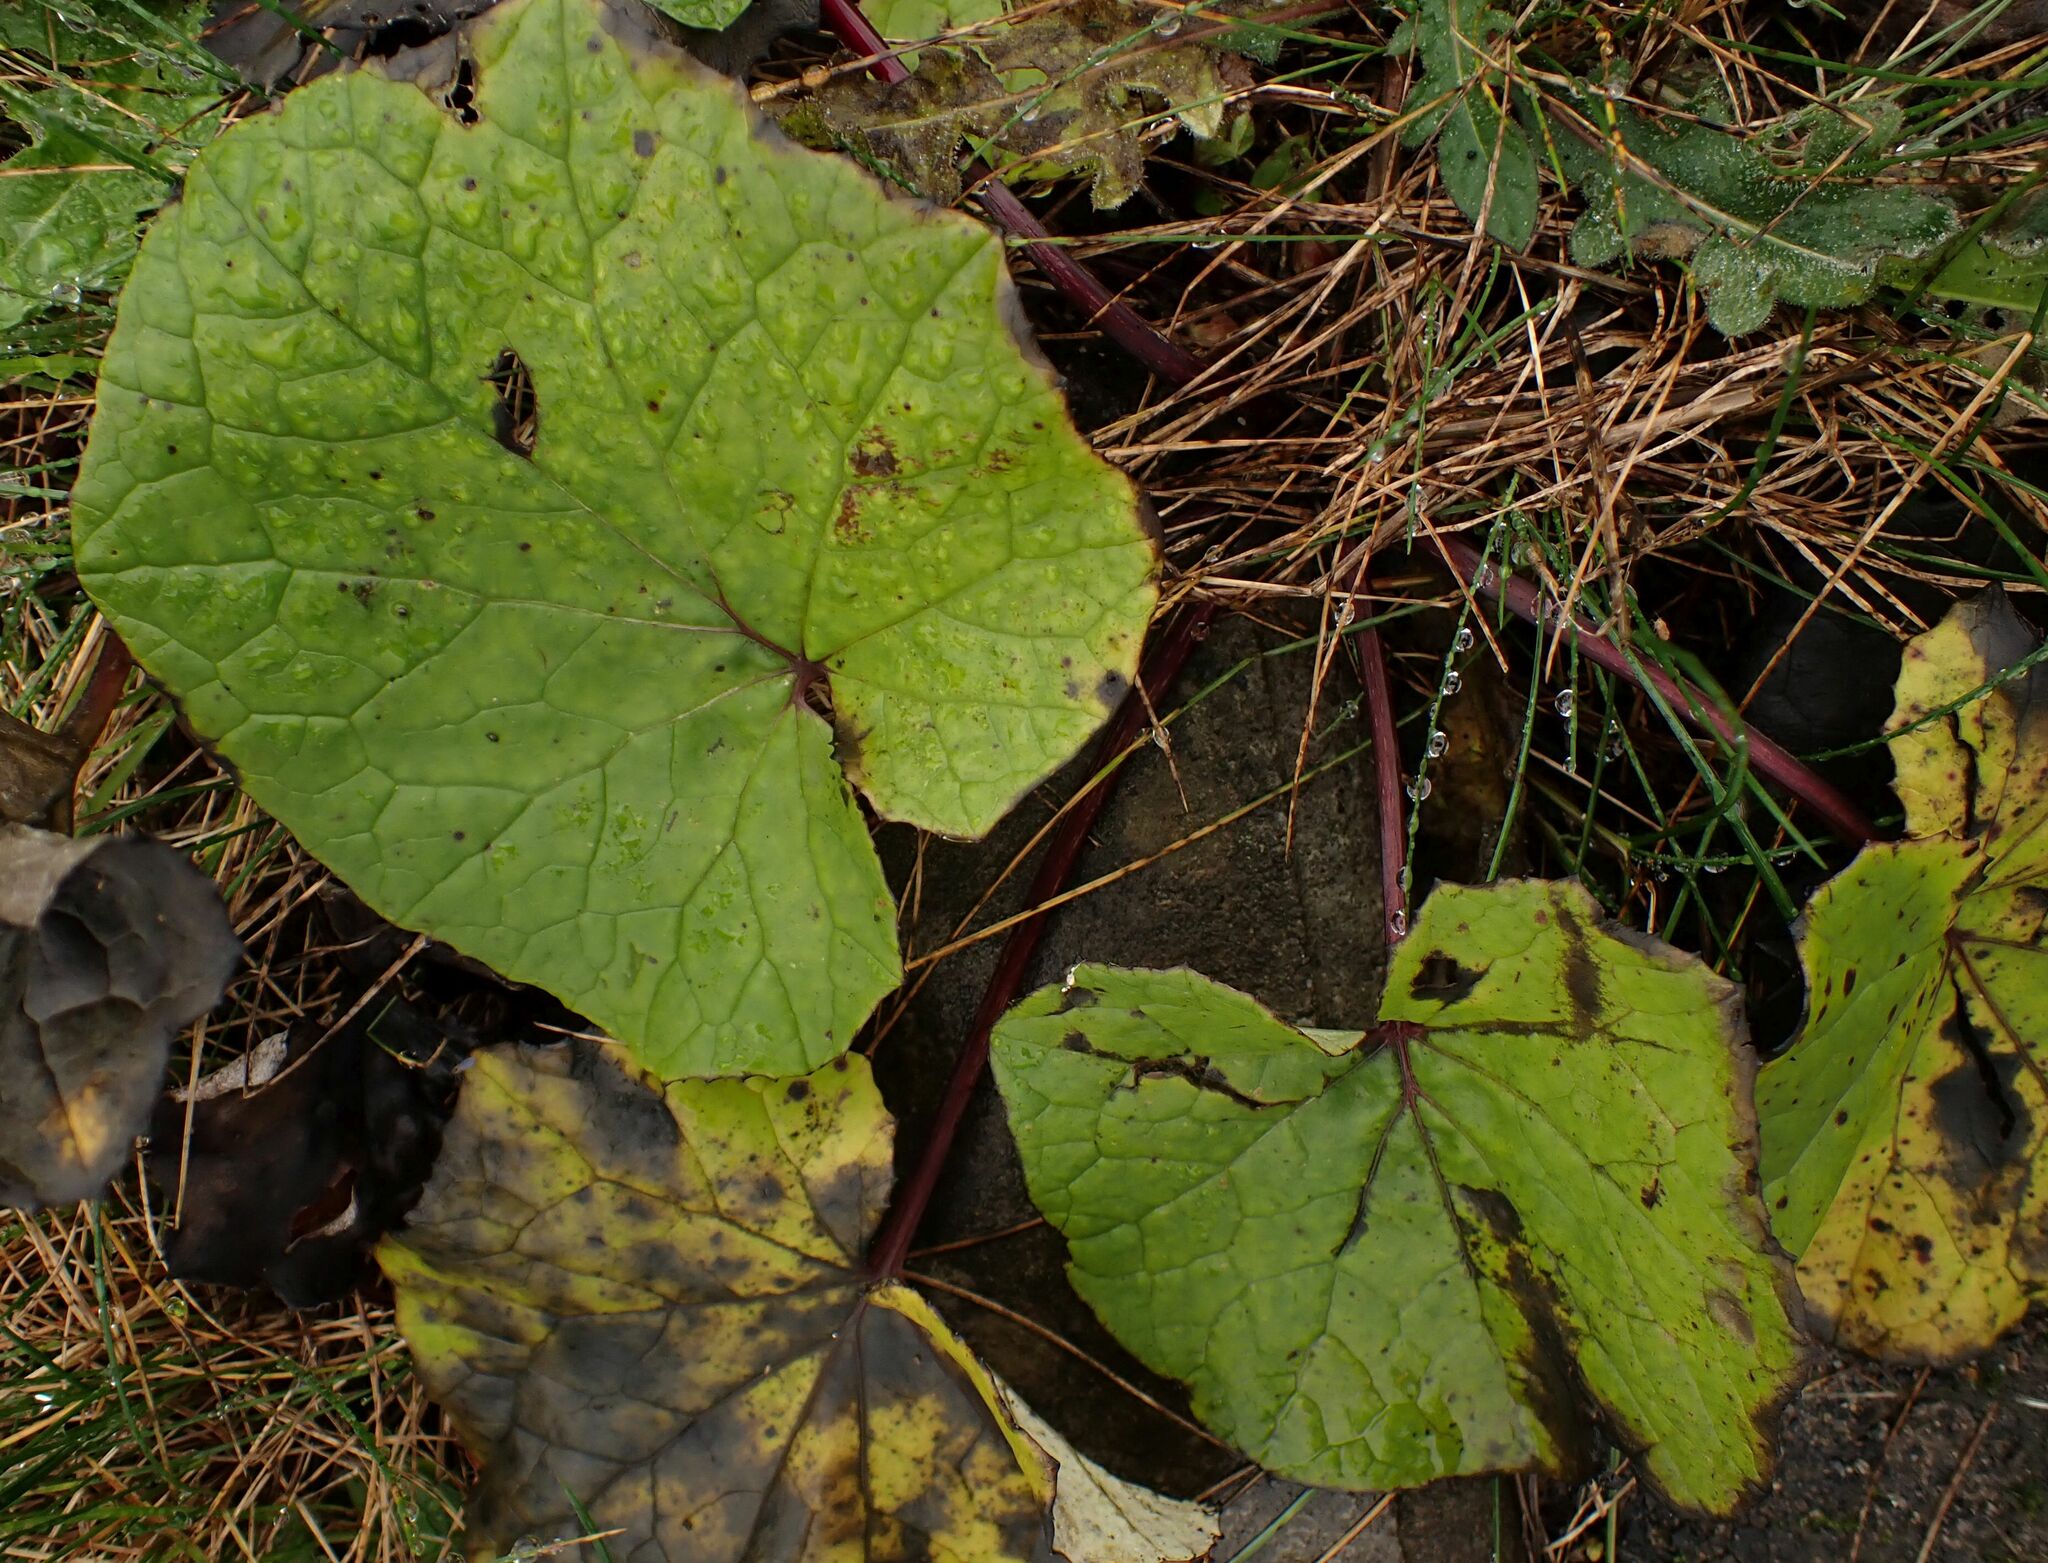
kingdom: Plantae
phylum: Tracheophyta
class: Magnoliopsida
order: Asterales
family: Asteraceae
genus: Tussilago
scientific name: Tussilago farfara
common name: Coltsfoot
